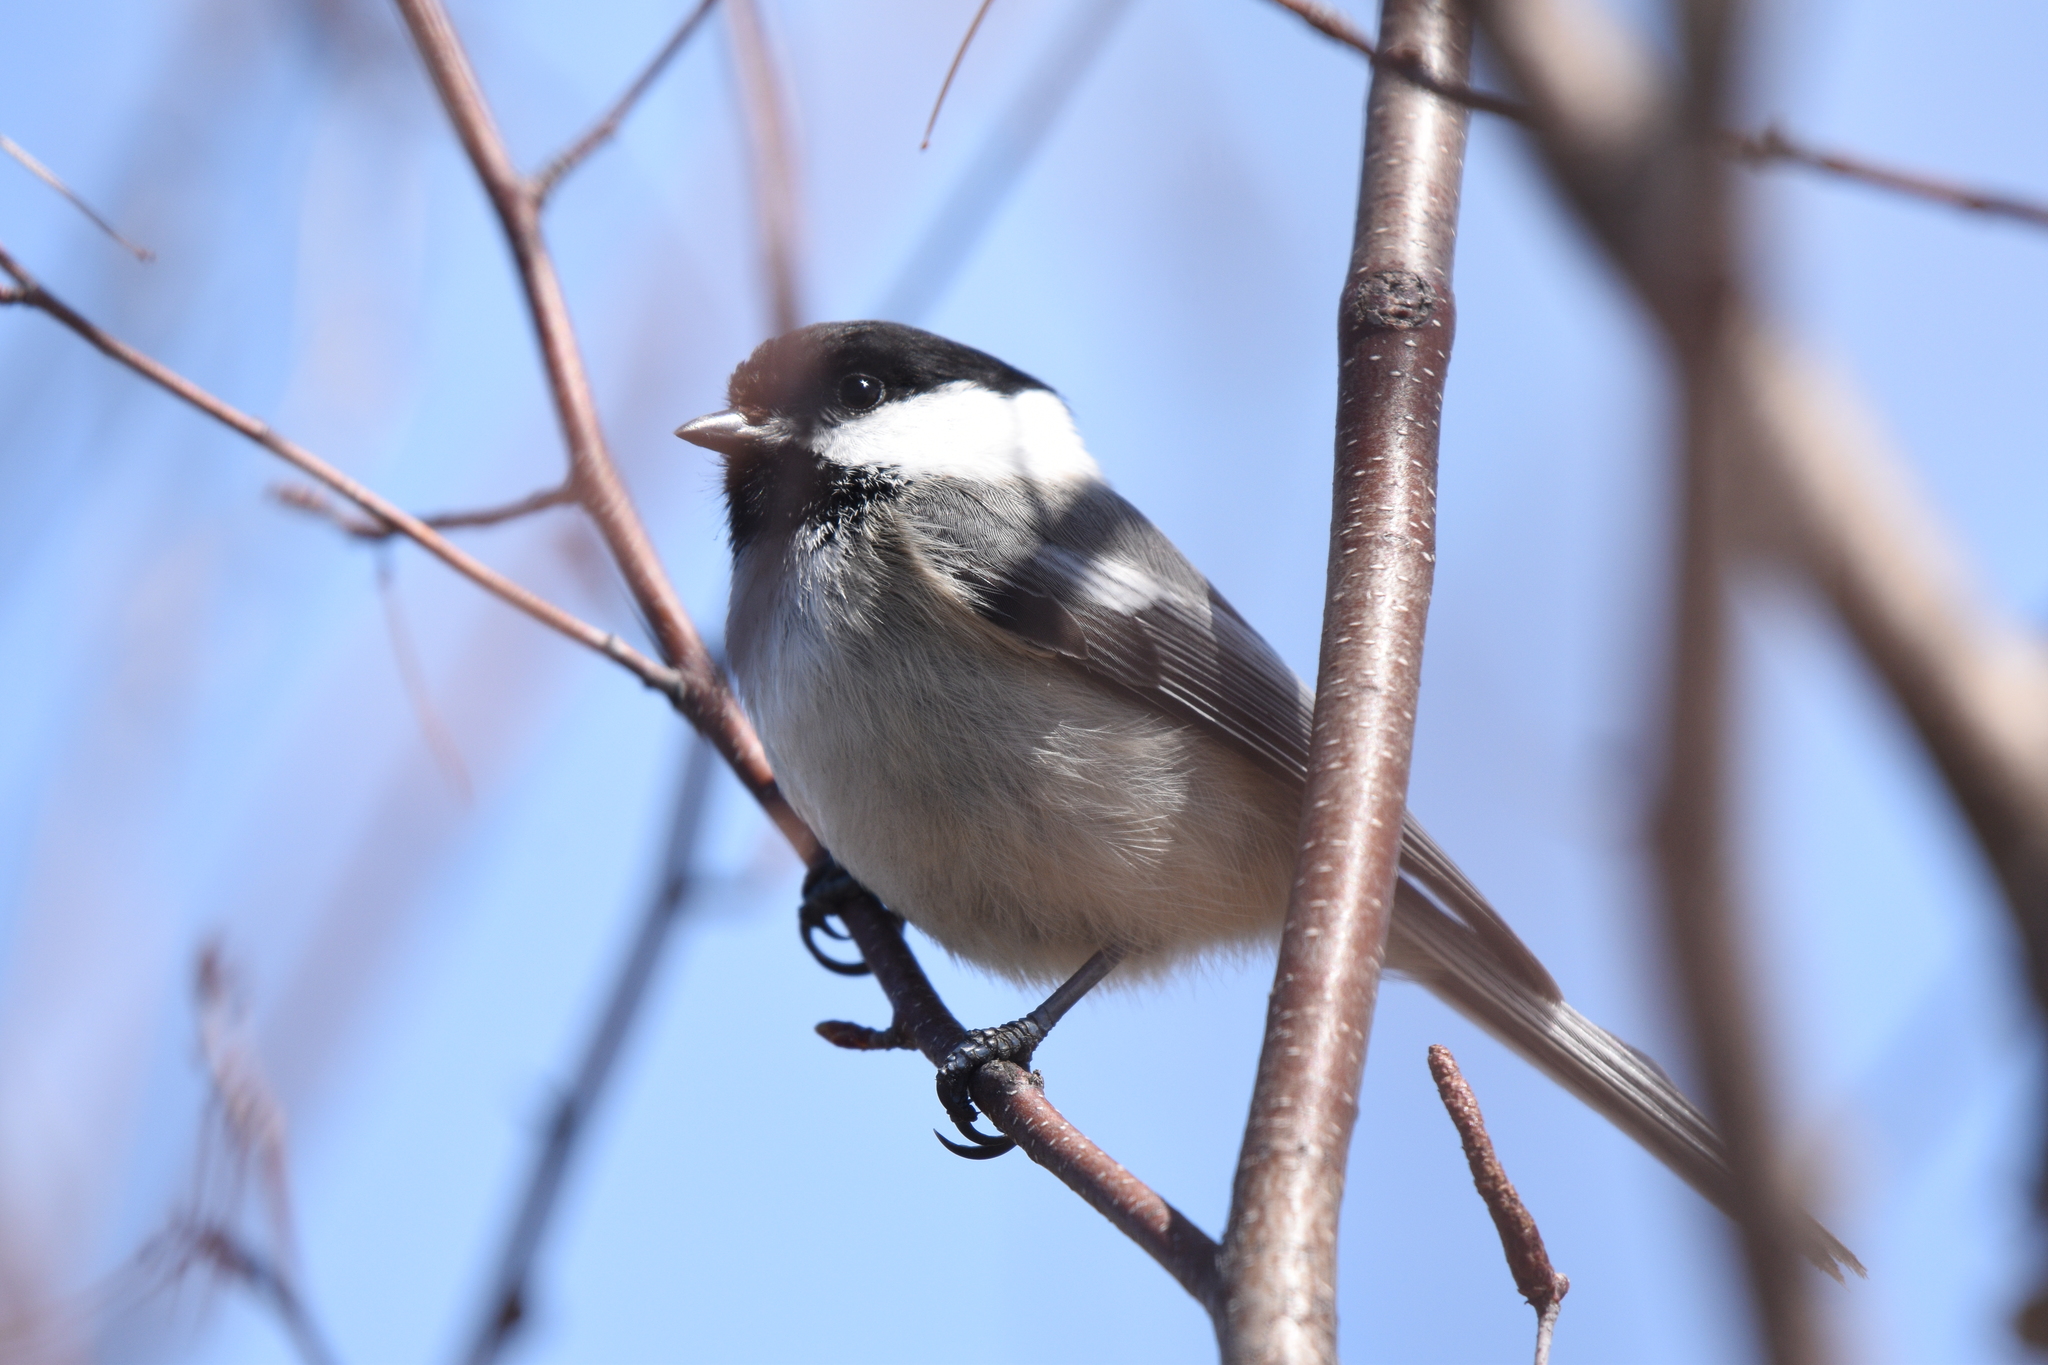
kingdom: Animalia
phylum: Chordata
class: Aves
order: Passeriformes
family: Paridae
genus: Poecile
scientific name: Poecile atricapillus
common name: Black-capped chickadee
